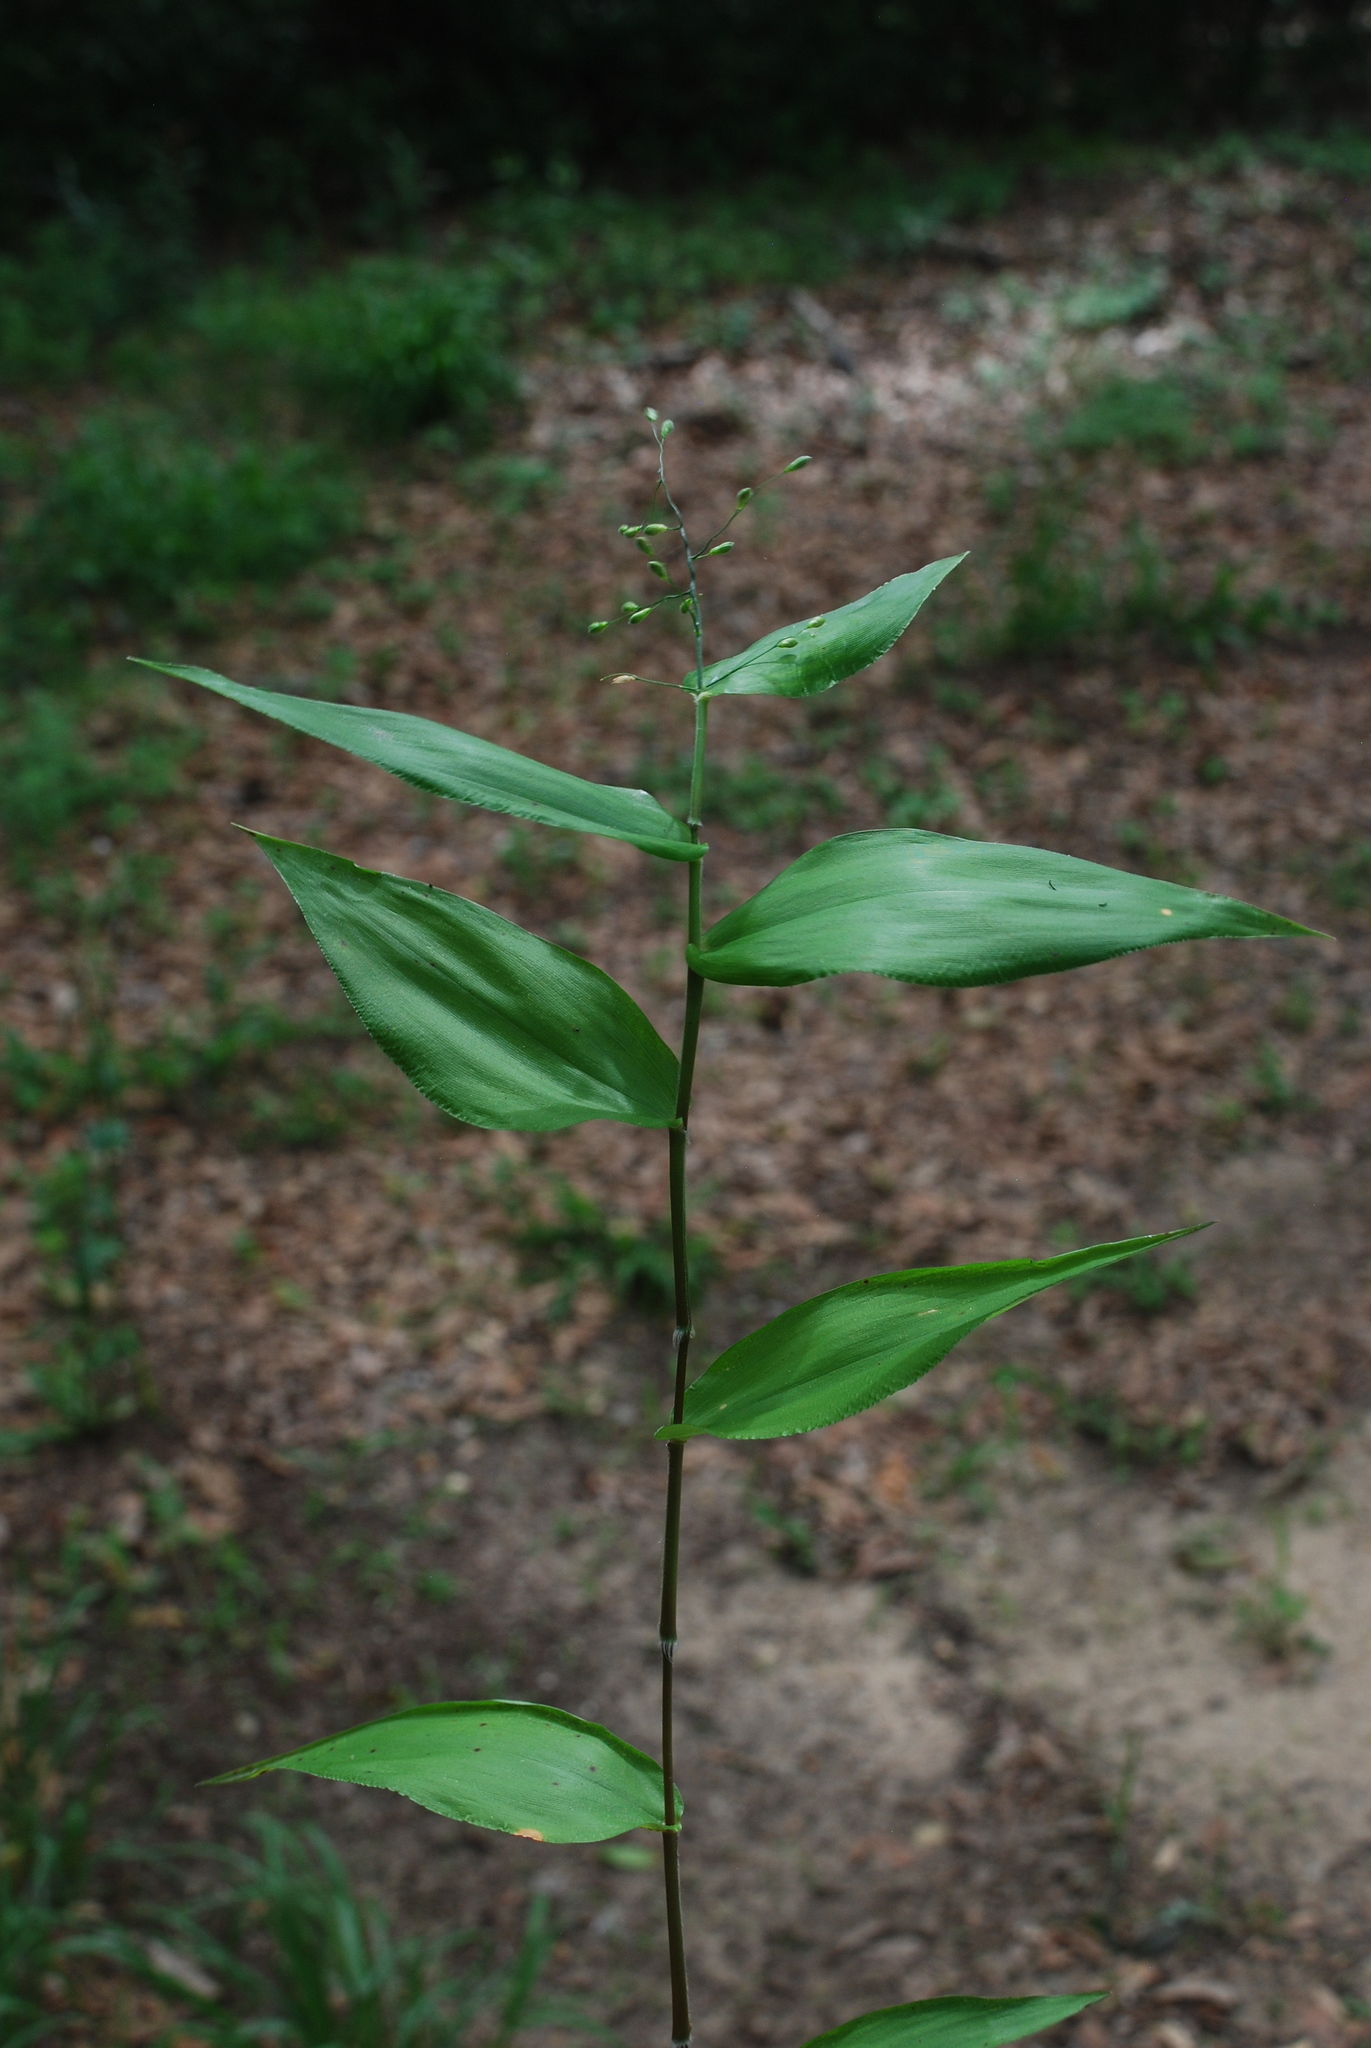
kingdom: Plantae
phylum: Tracheophyta
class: Liliopsida
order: Poales
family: Poaceae
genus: Dichanthelium
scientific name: Dichanthelium boscii
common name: Bosc's panic grass
